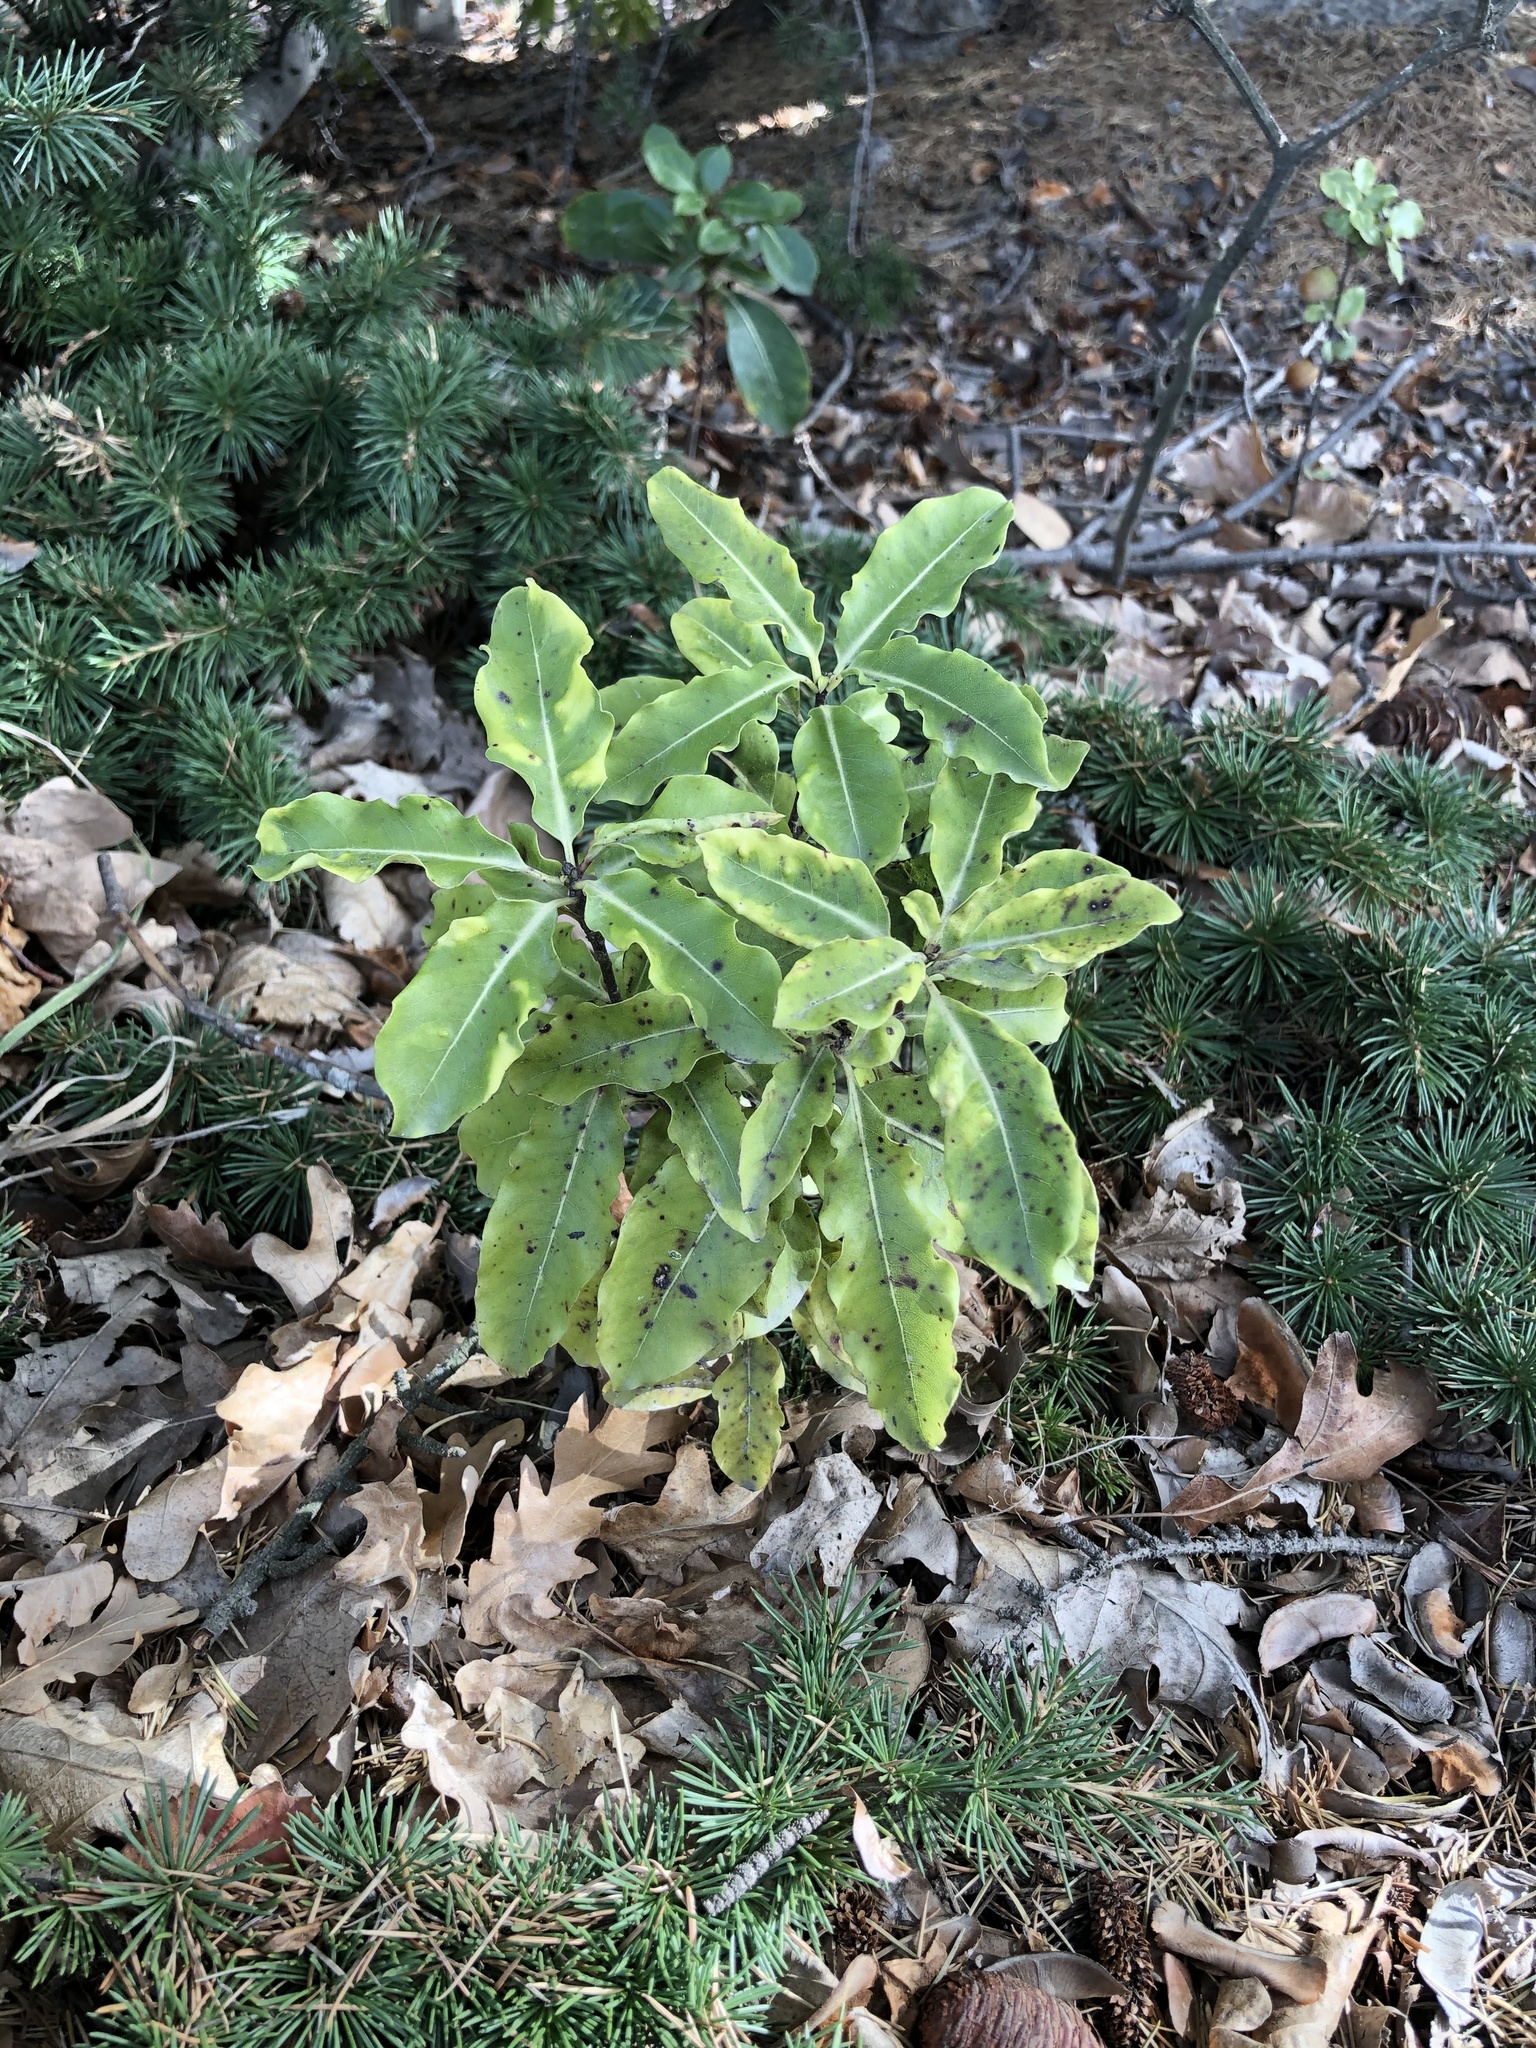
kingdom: Plantae
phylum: Tracheophyta
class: Magnoliopsida
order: Apiales
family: Pittosporaceae
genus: Pittosporum
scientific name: Pittosporum eugenioides
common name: Lemonwood
